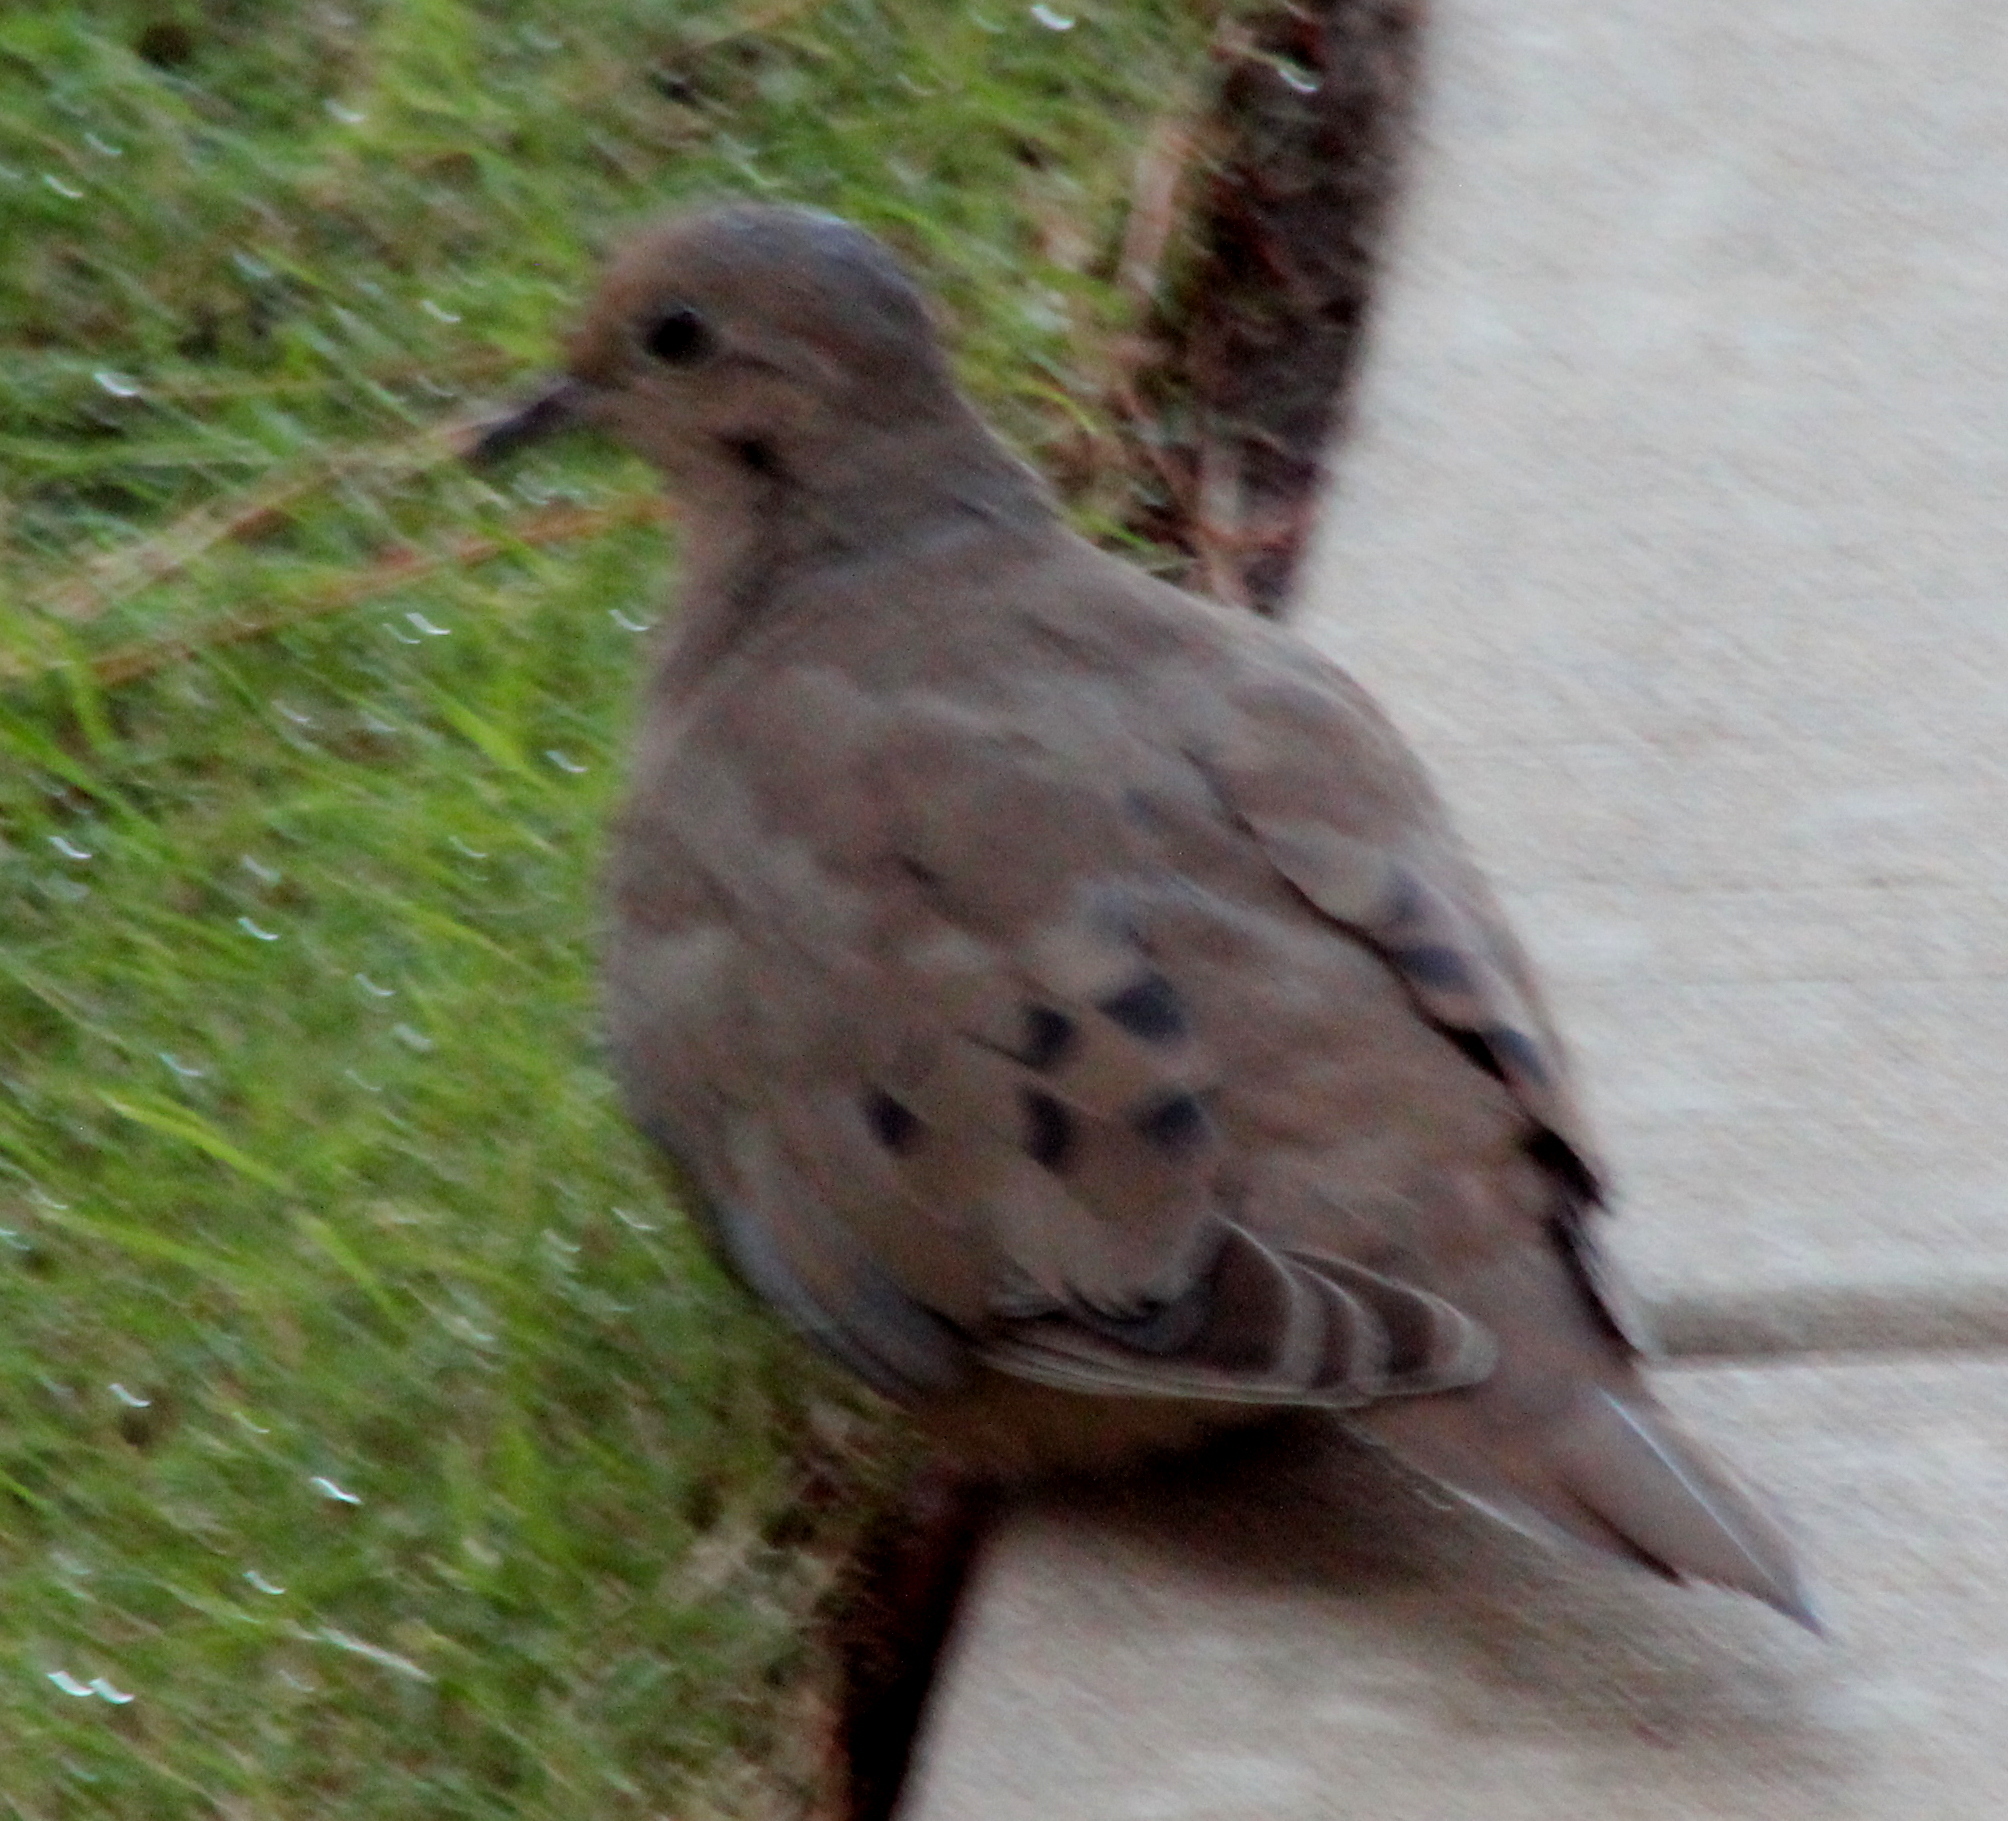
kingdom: Animalia
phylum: Chordata
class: Aves
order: Columbiformes
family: Columbidae
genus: Zenaida
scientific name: Zenaida macroura
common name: Mourning dove
